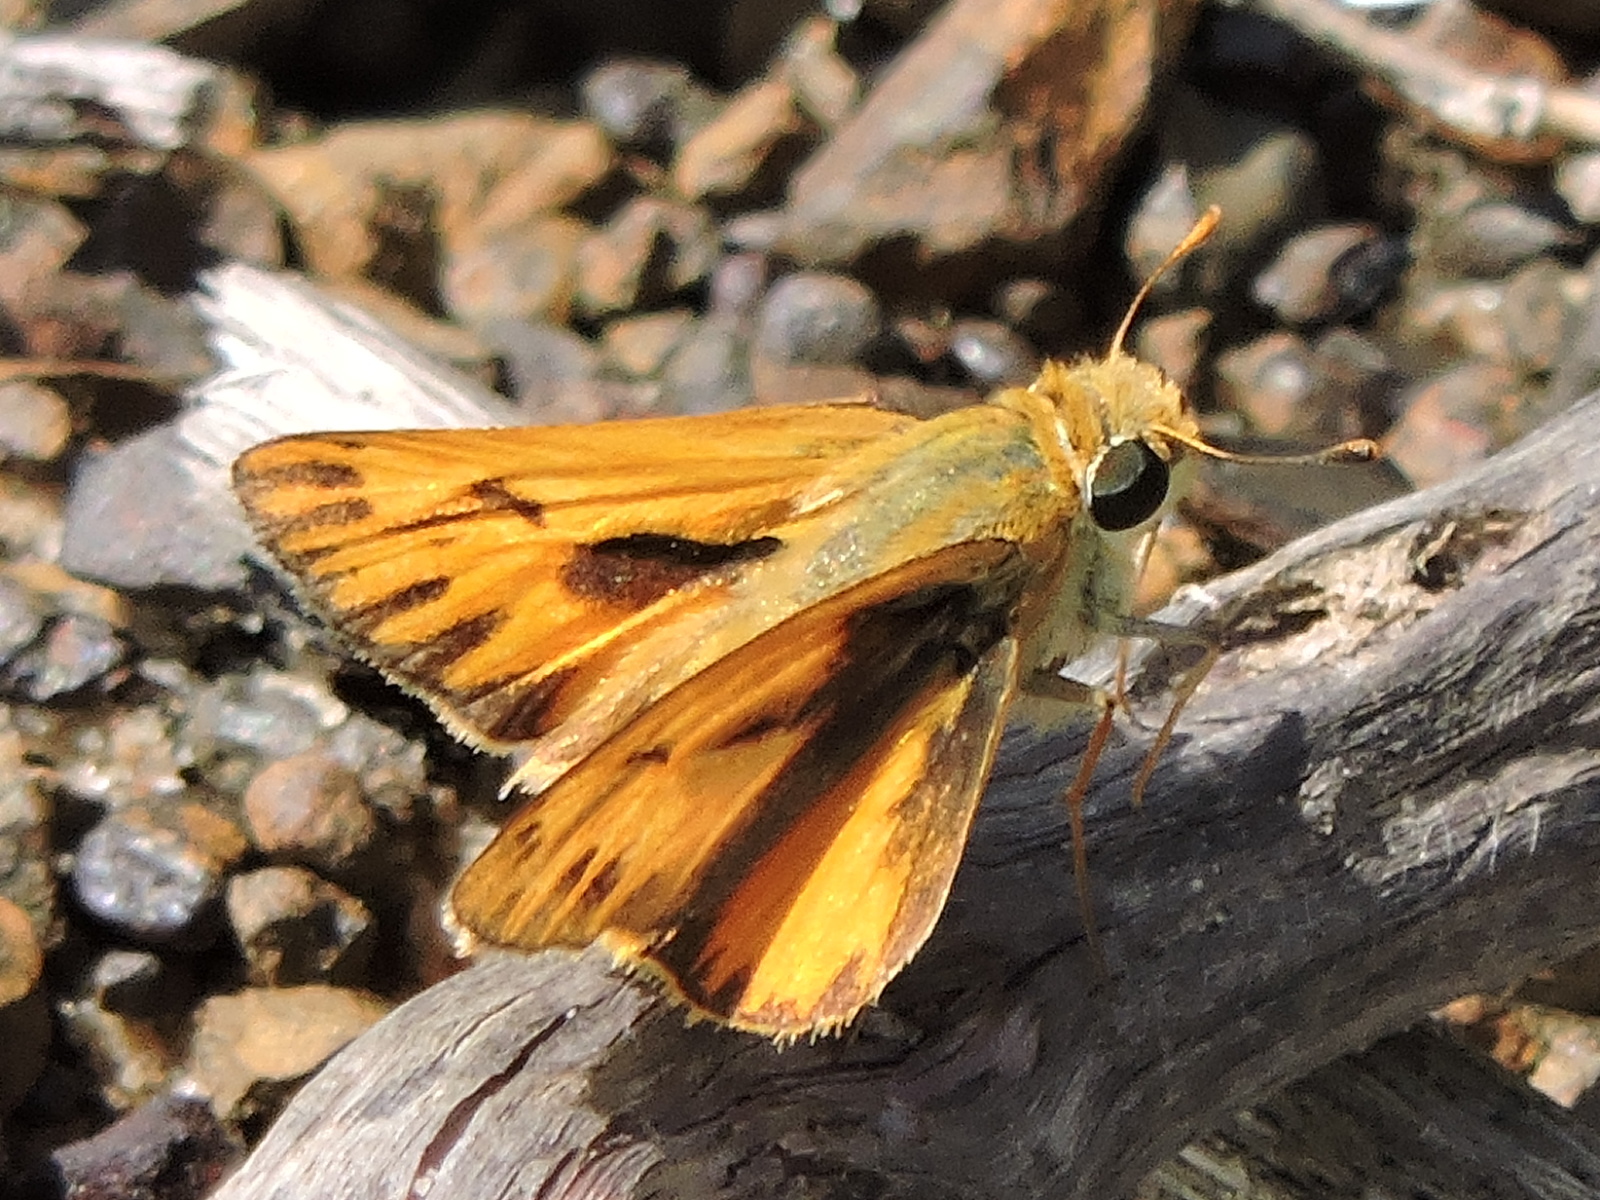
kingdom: Animalia
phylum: Arthropoda
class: Insecta
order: Lepidoptera
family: Hesperiidae
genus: Hylephila
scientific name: Hylephila phyleus
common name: Fiery skipper
